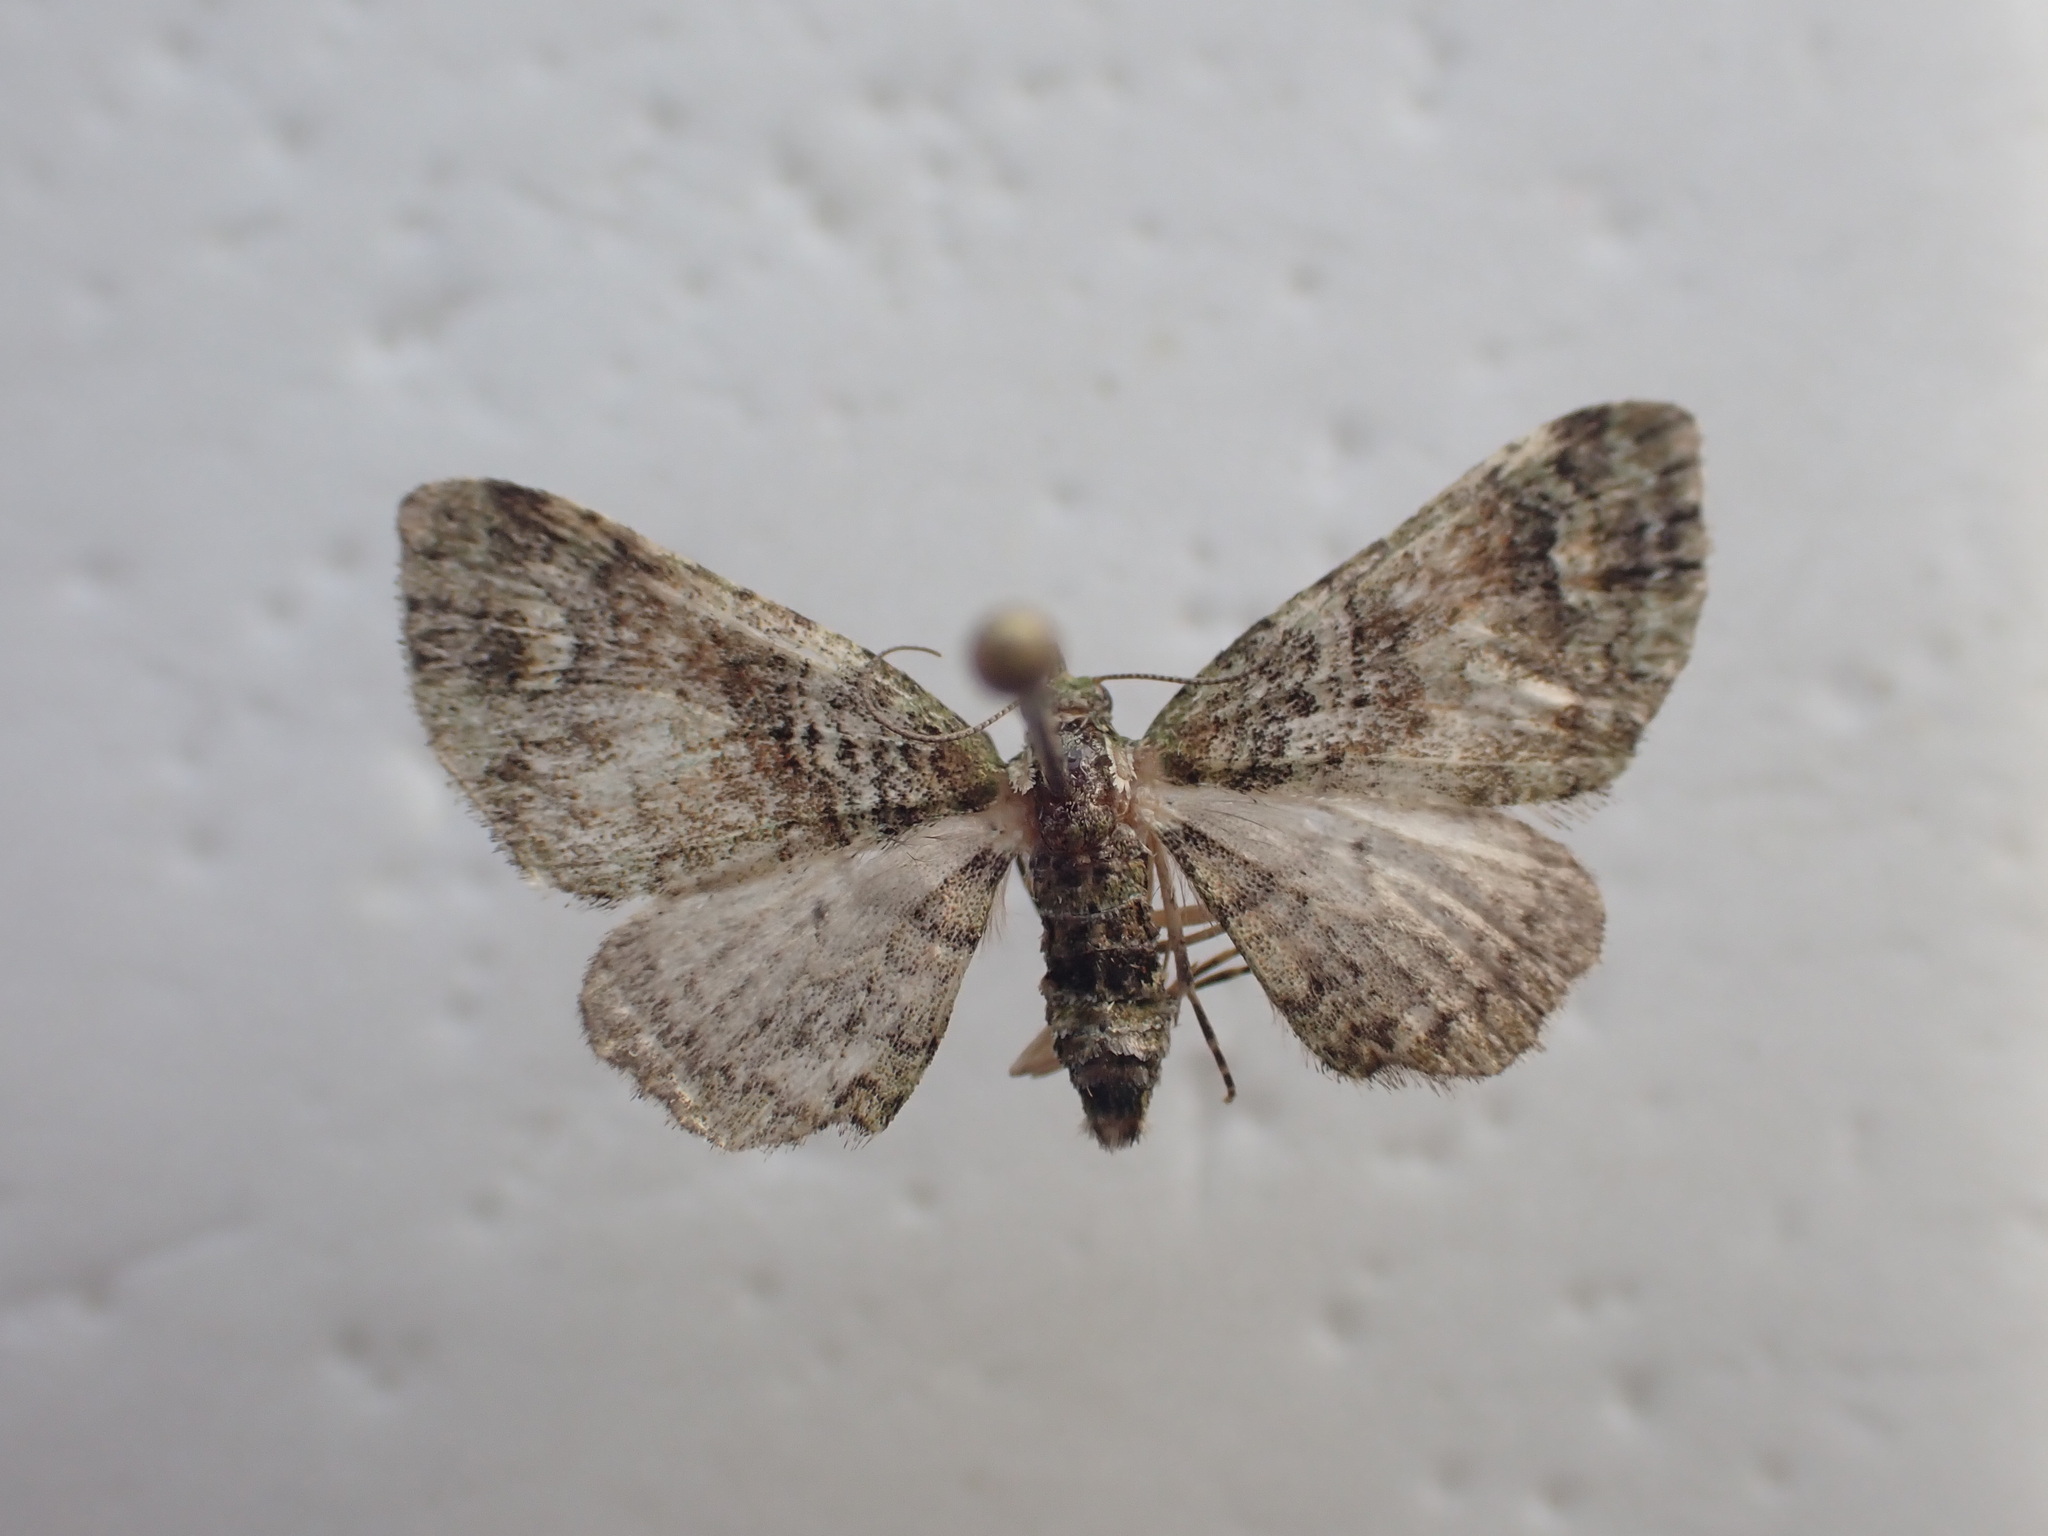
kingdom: Animalia
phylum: Arthropoda
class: Insecta
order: Lepidoptera
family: Geometridae
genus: Idaea
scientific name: Idaea mutanda
